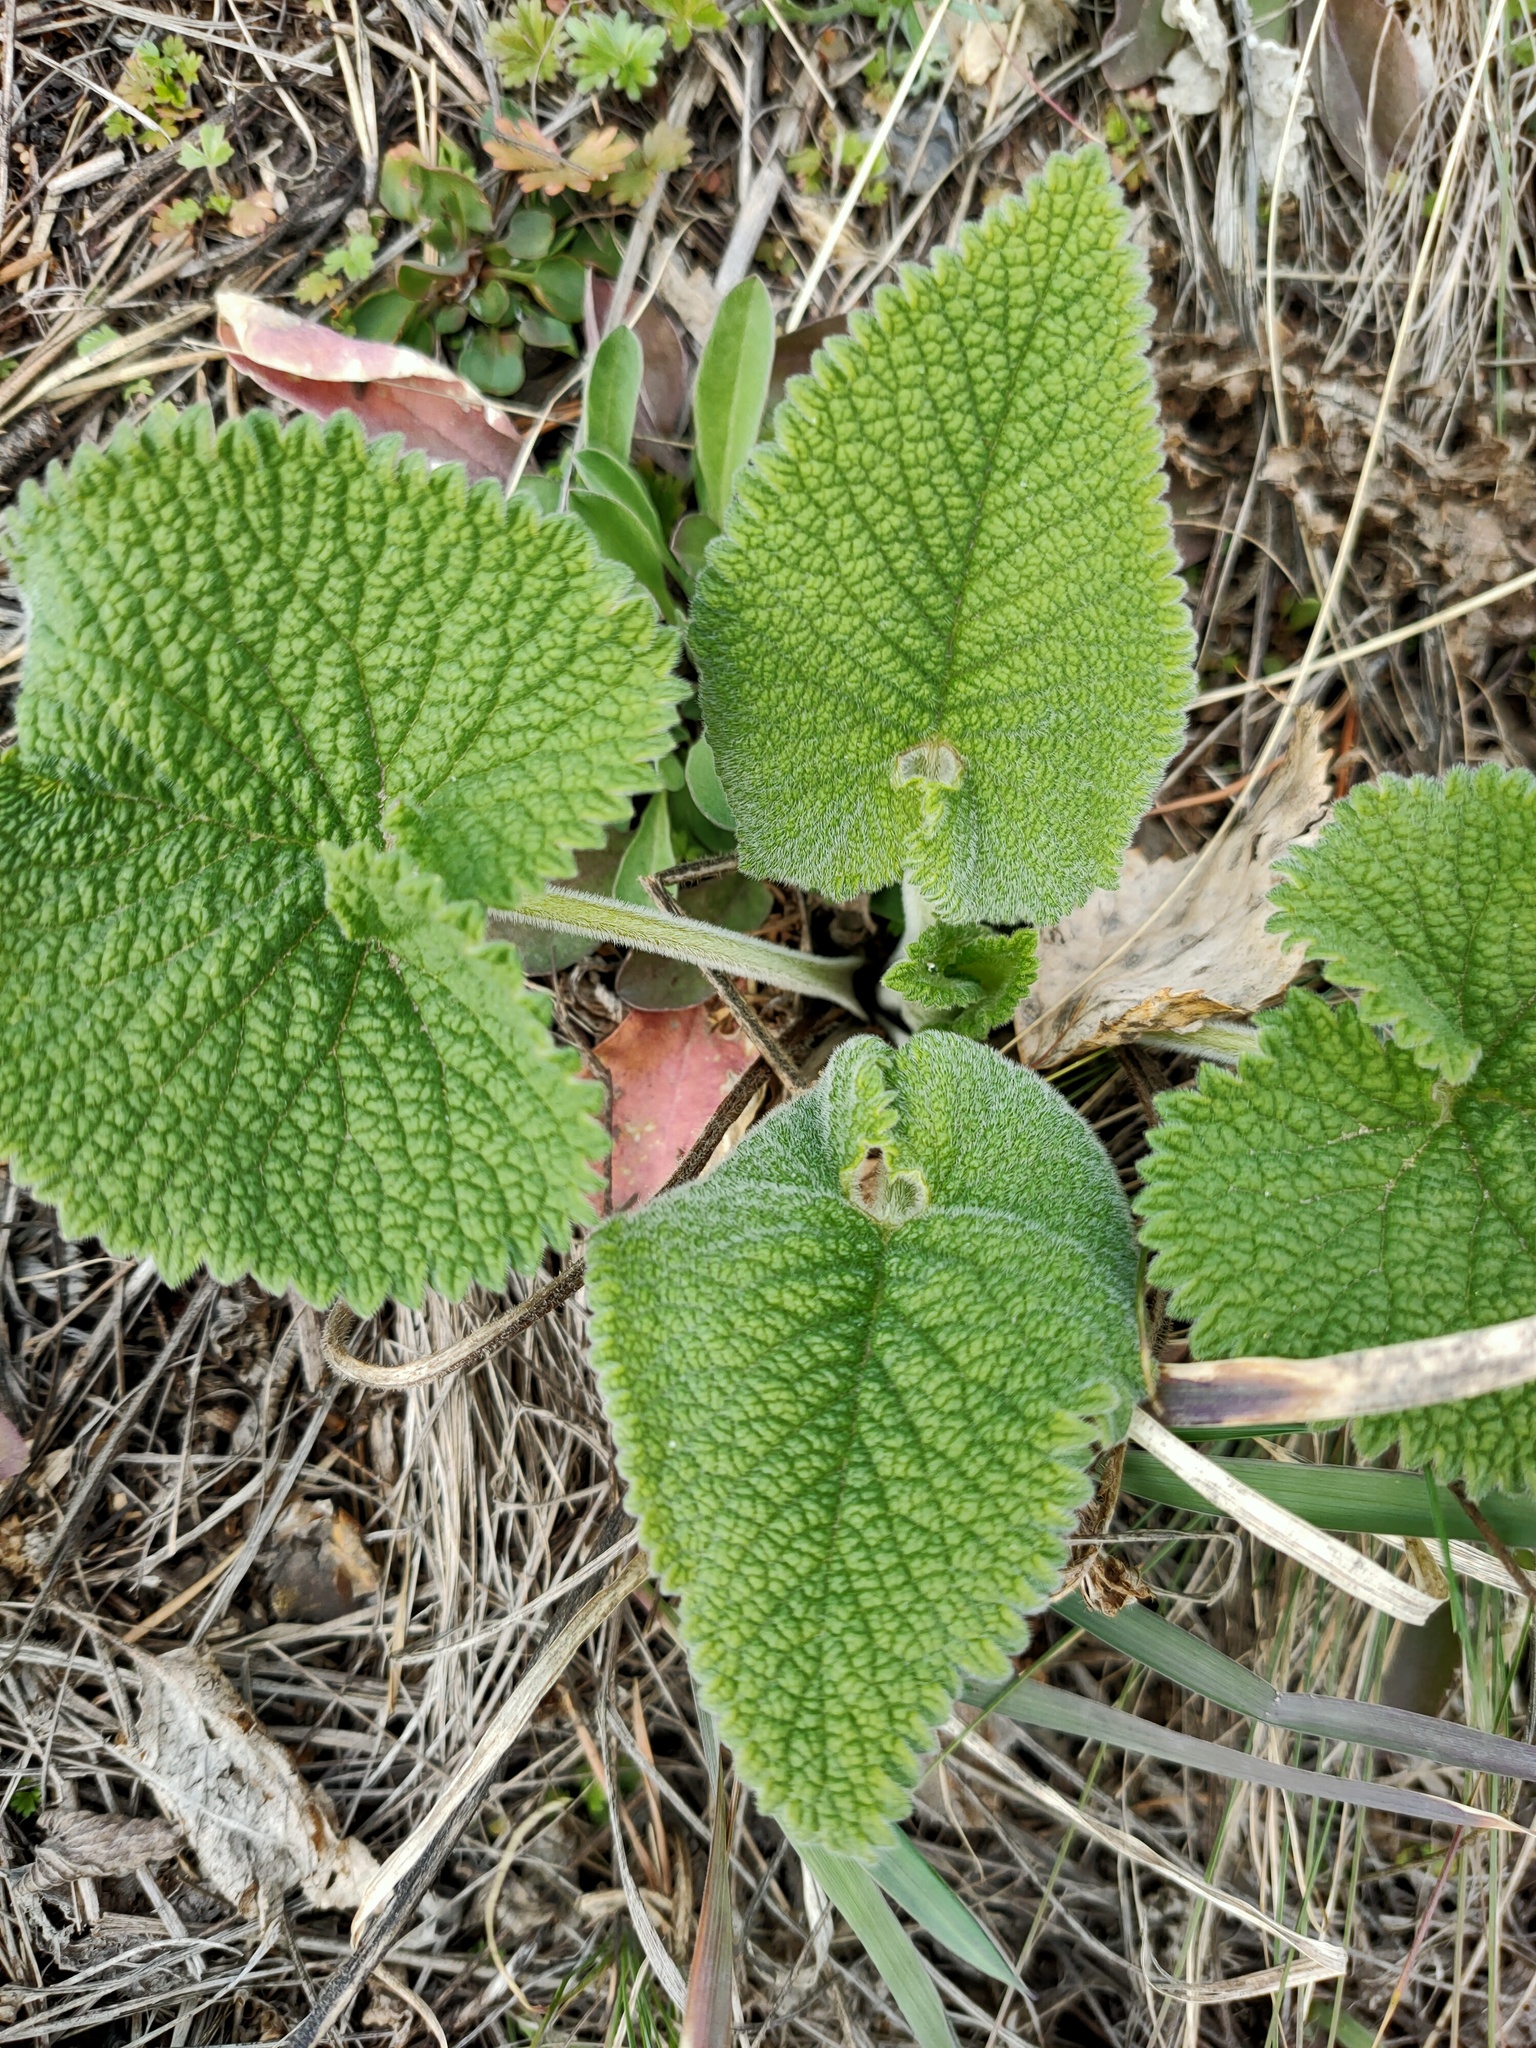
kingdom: Plantae
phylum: Tracheophyta
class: Magnoliopsida
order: Lamiales
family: Lamiaceae
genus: Phlomoides
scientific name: Phlomoides tuberosa
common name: Tuberous jerusalem sage
